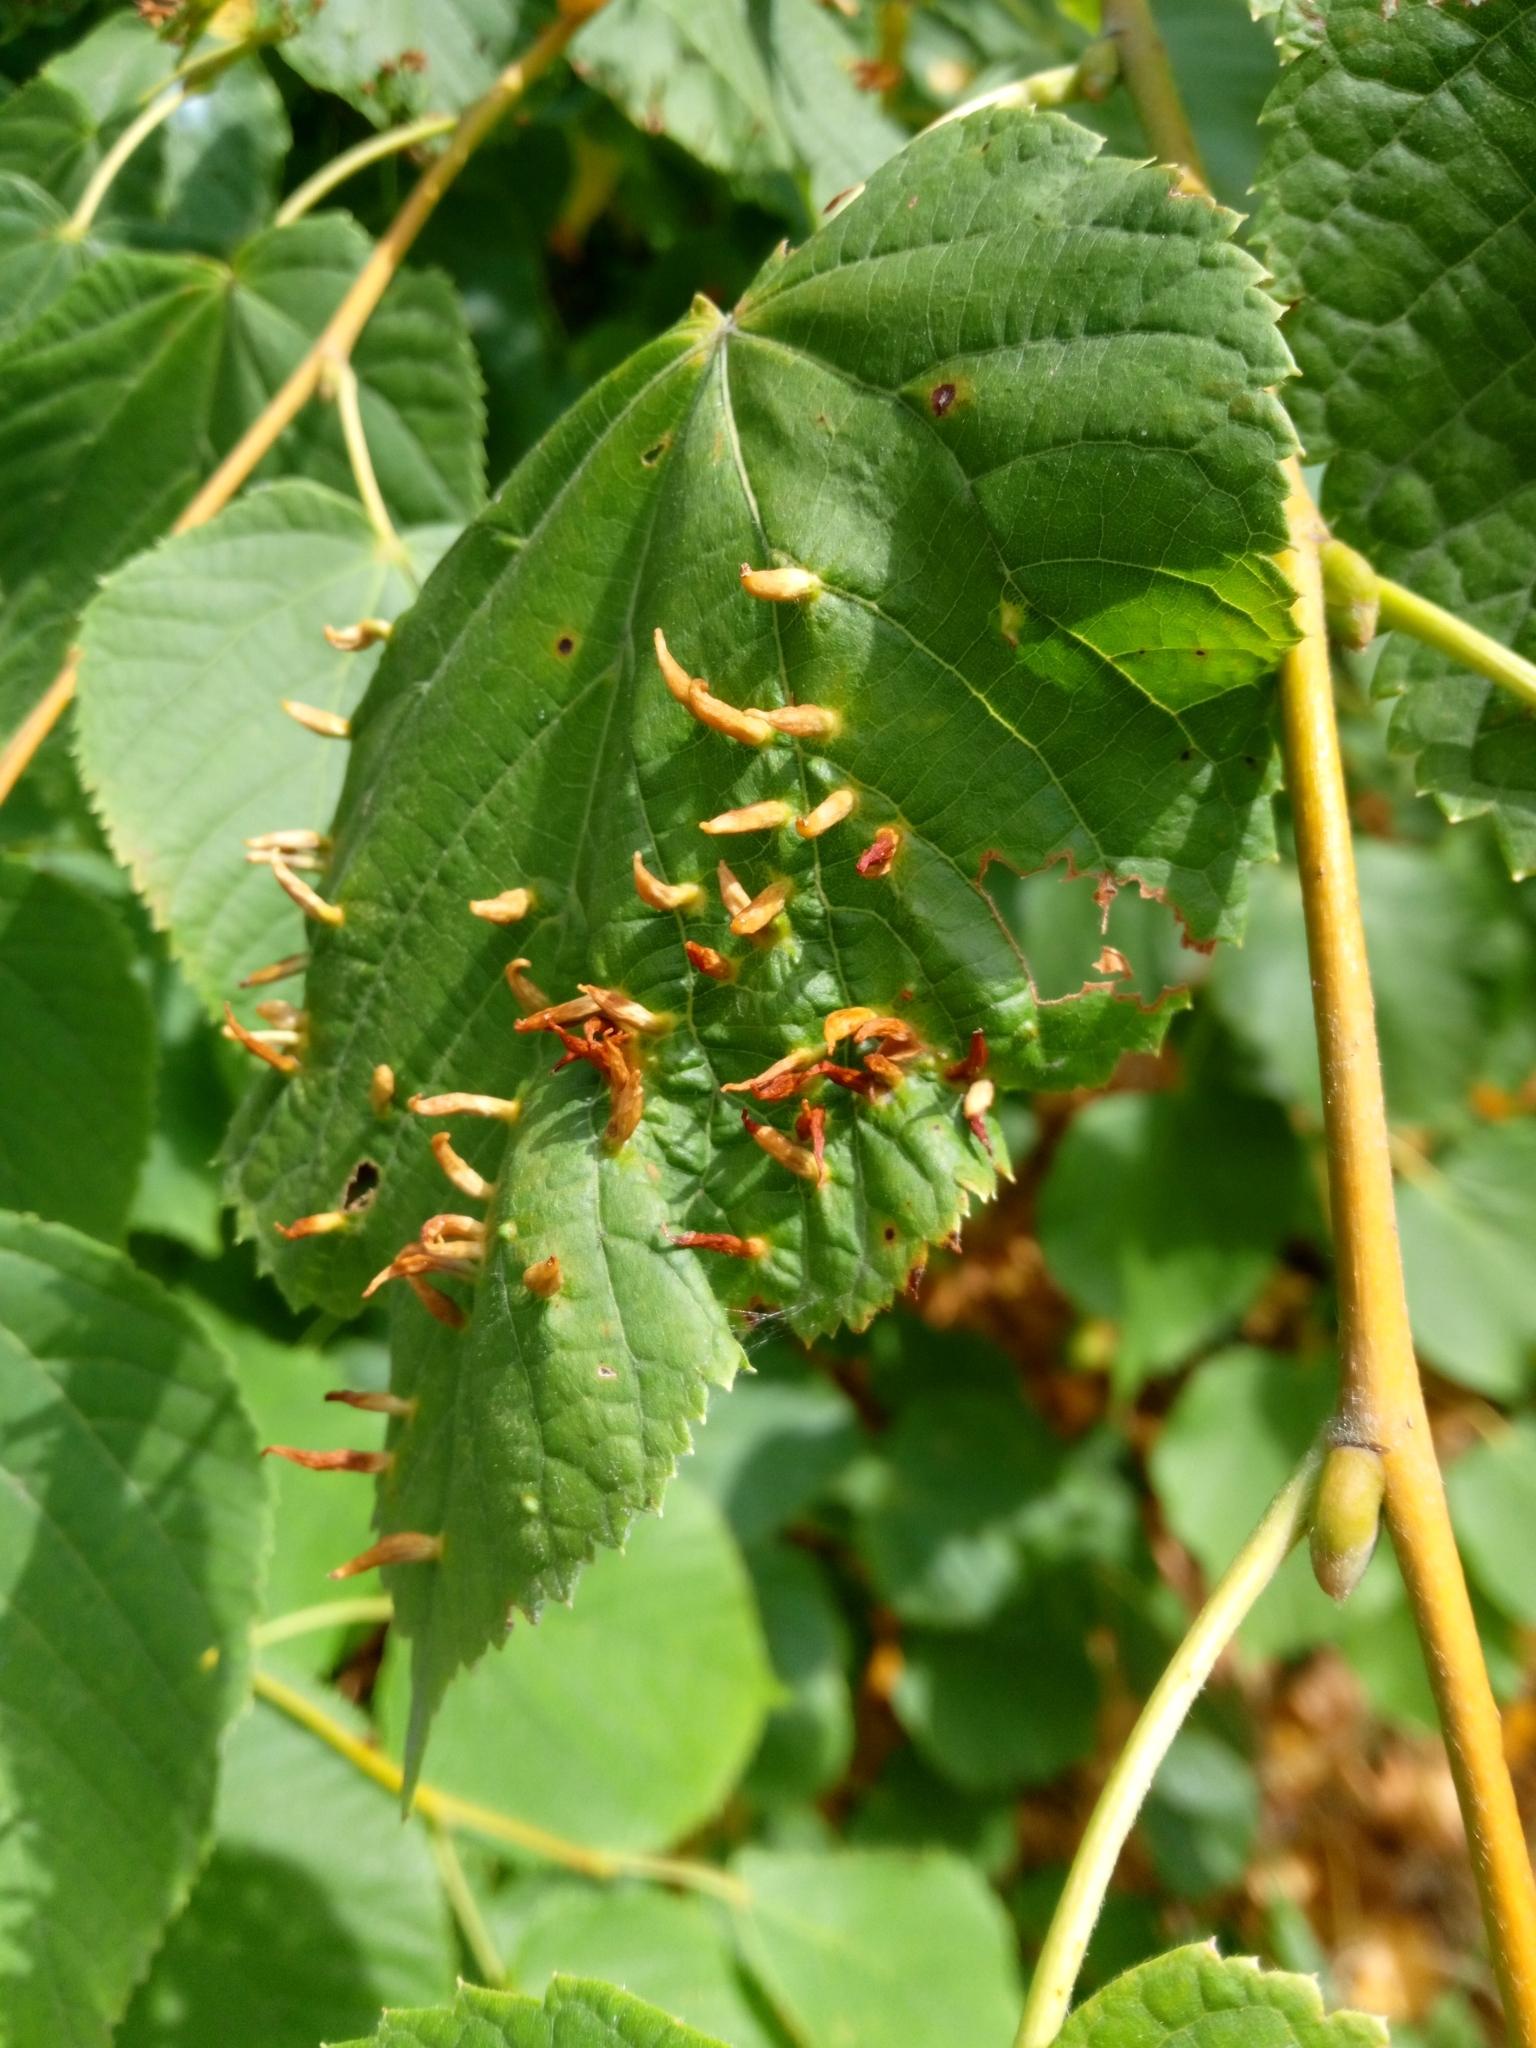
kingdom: Animalia
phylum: Arthropoda
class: Arachnida
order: Trombidiformes
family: Eriophyidae
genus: Eriophyes
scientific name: Eriophyes tiliae
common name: Red nail gall mite
